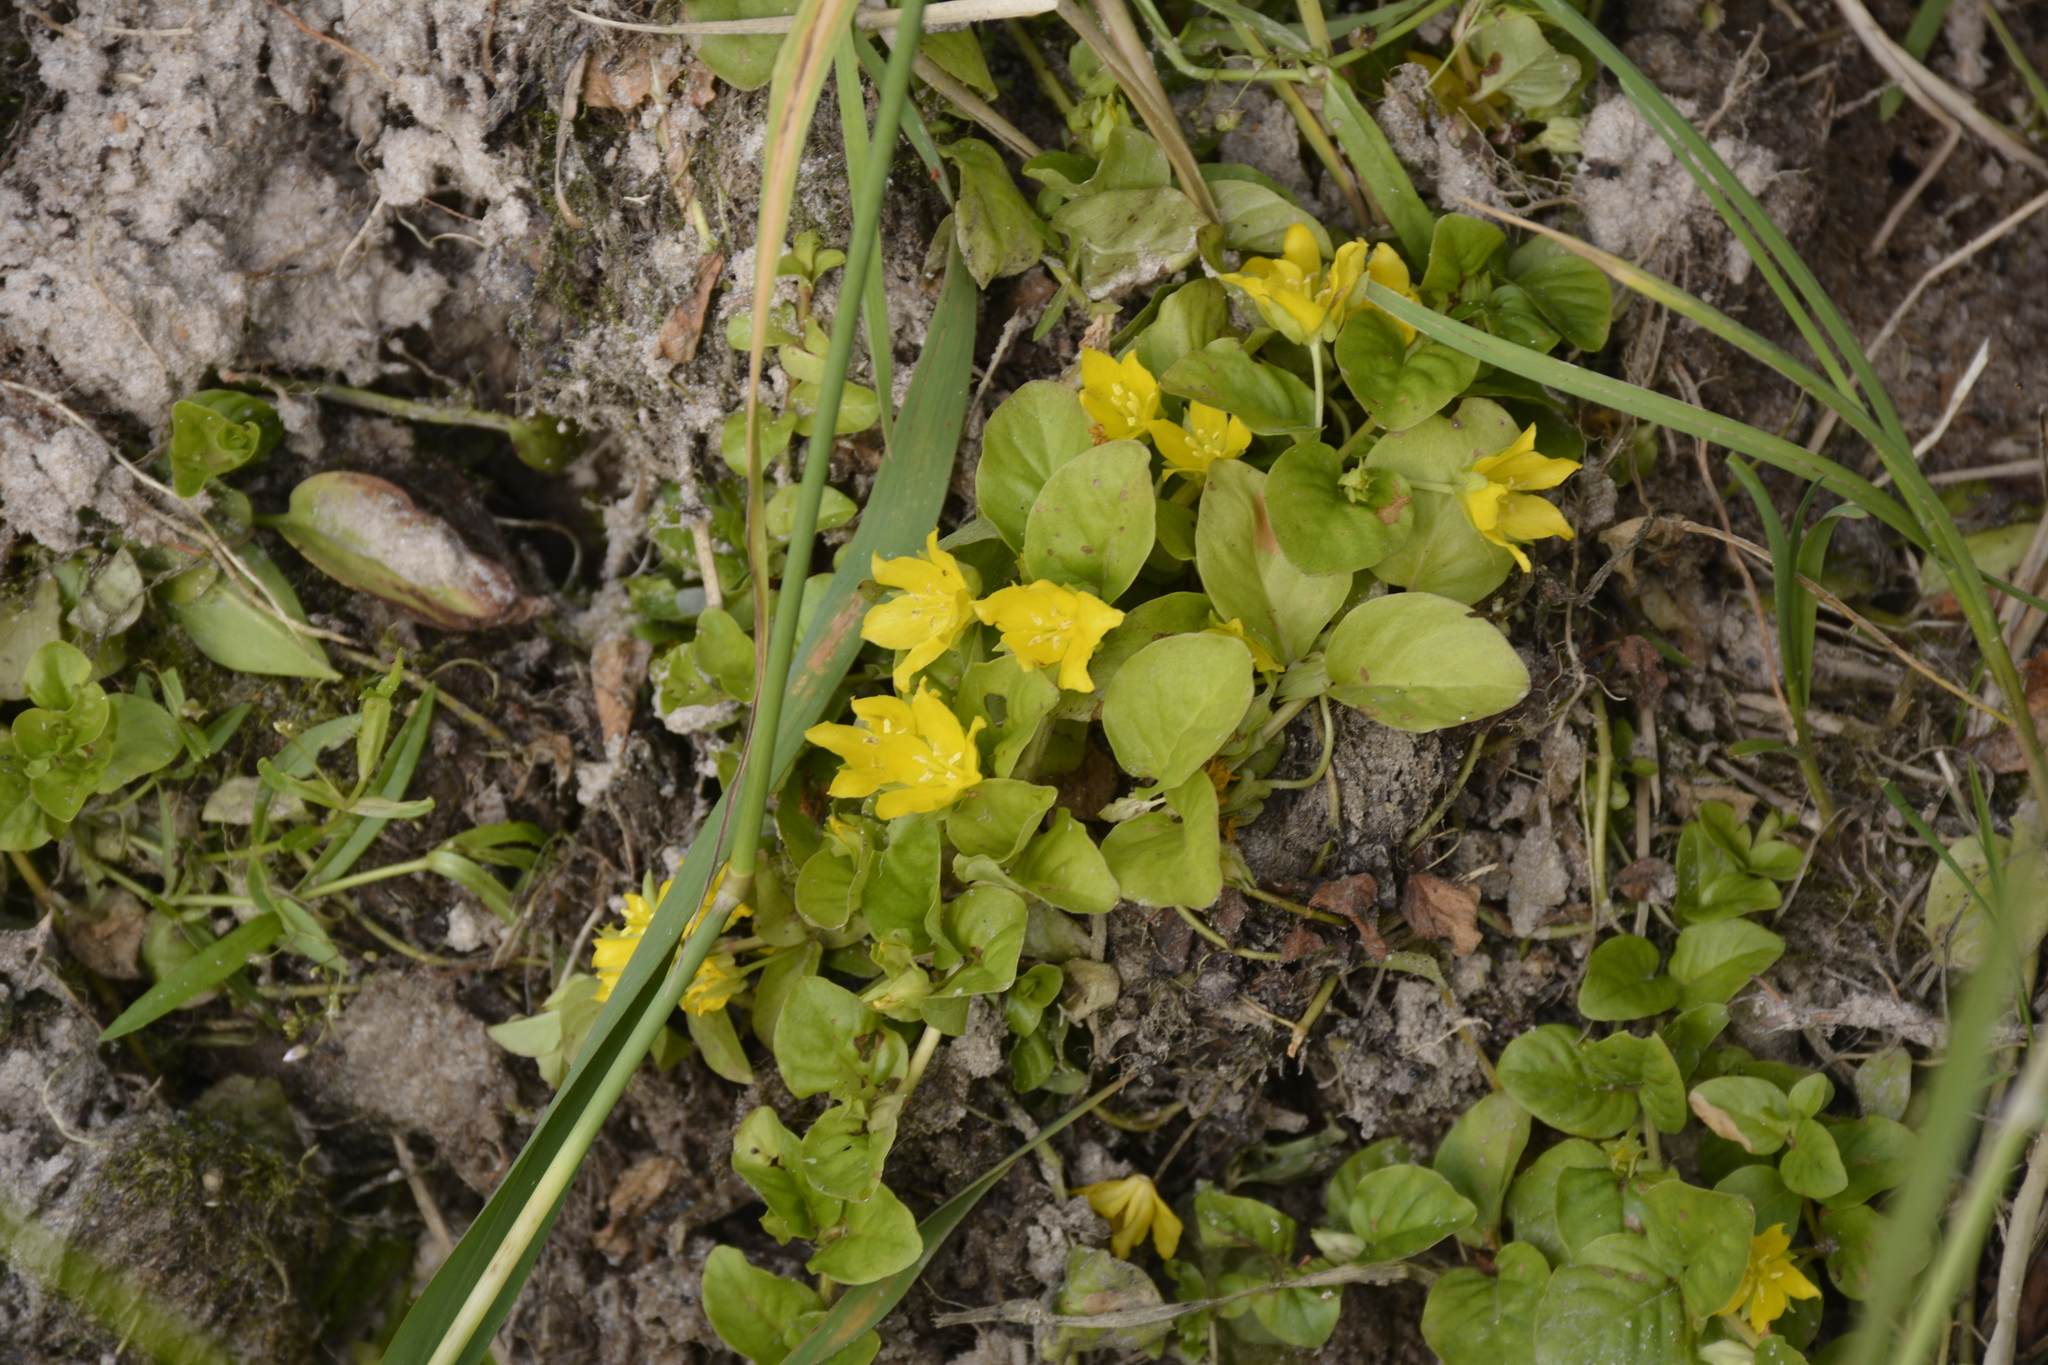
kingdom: Plantae
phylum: Tracheophyta
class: Magnoliopsida
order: Ericales
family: Primulaceae
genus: Lysimachia
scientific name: Lysimachia nummularia
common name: Moneywort
